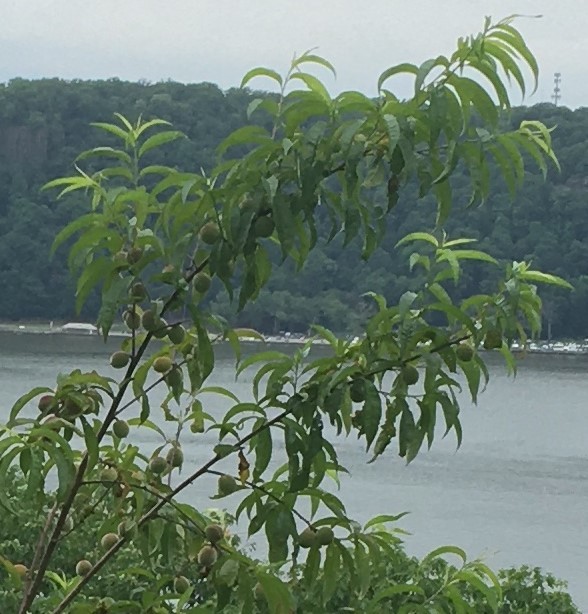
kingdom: Plantae
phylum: Tracheophyta
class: Magnoliopsida
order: Rosales
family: Rosaceae
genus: Prunus
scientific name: Prunus persica
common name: Peach
